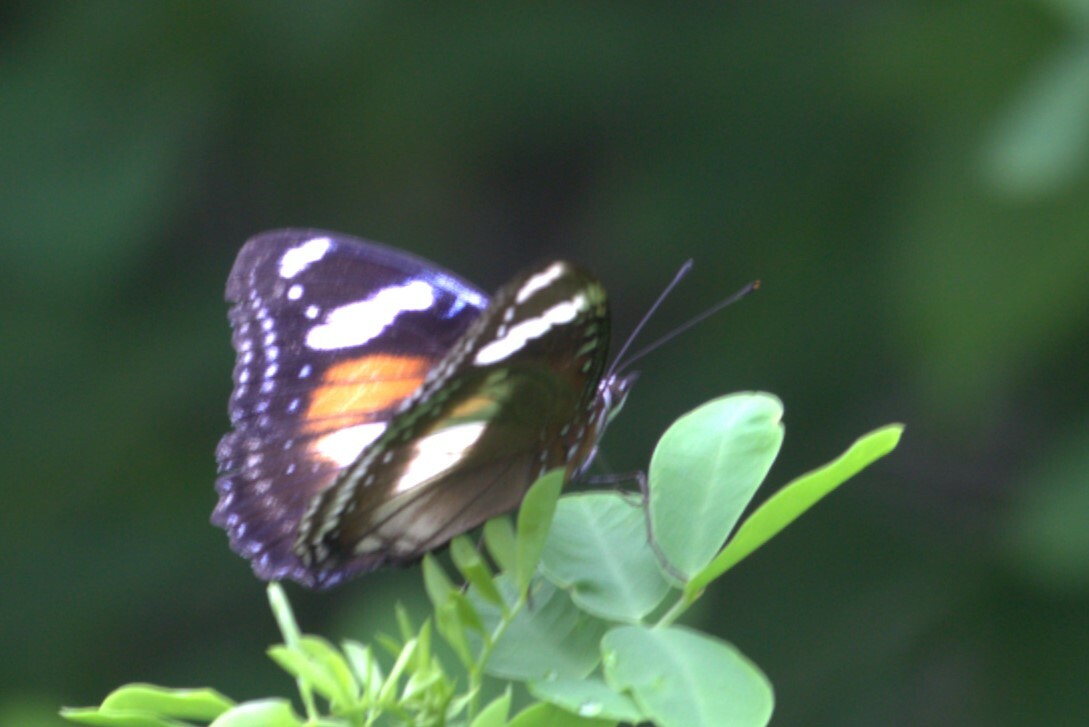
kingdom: Animalia
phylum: Arthropoda
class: Insecta
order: Lepidoptera
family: Nymphalidae
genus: Hypolimnas
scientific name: Hypolimnas bolina
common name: Great eggfly
